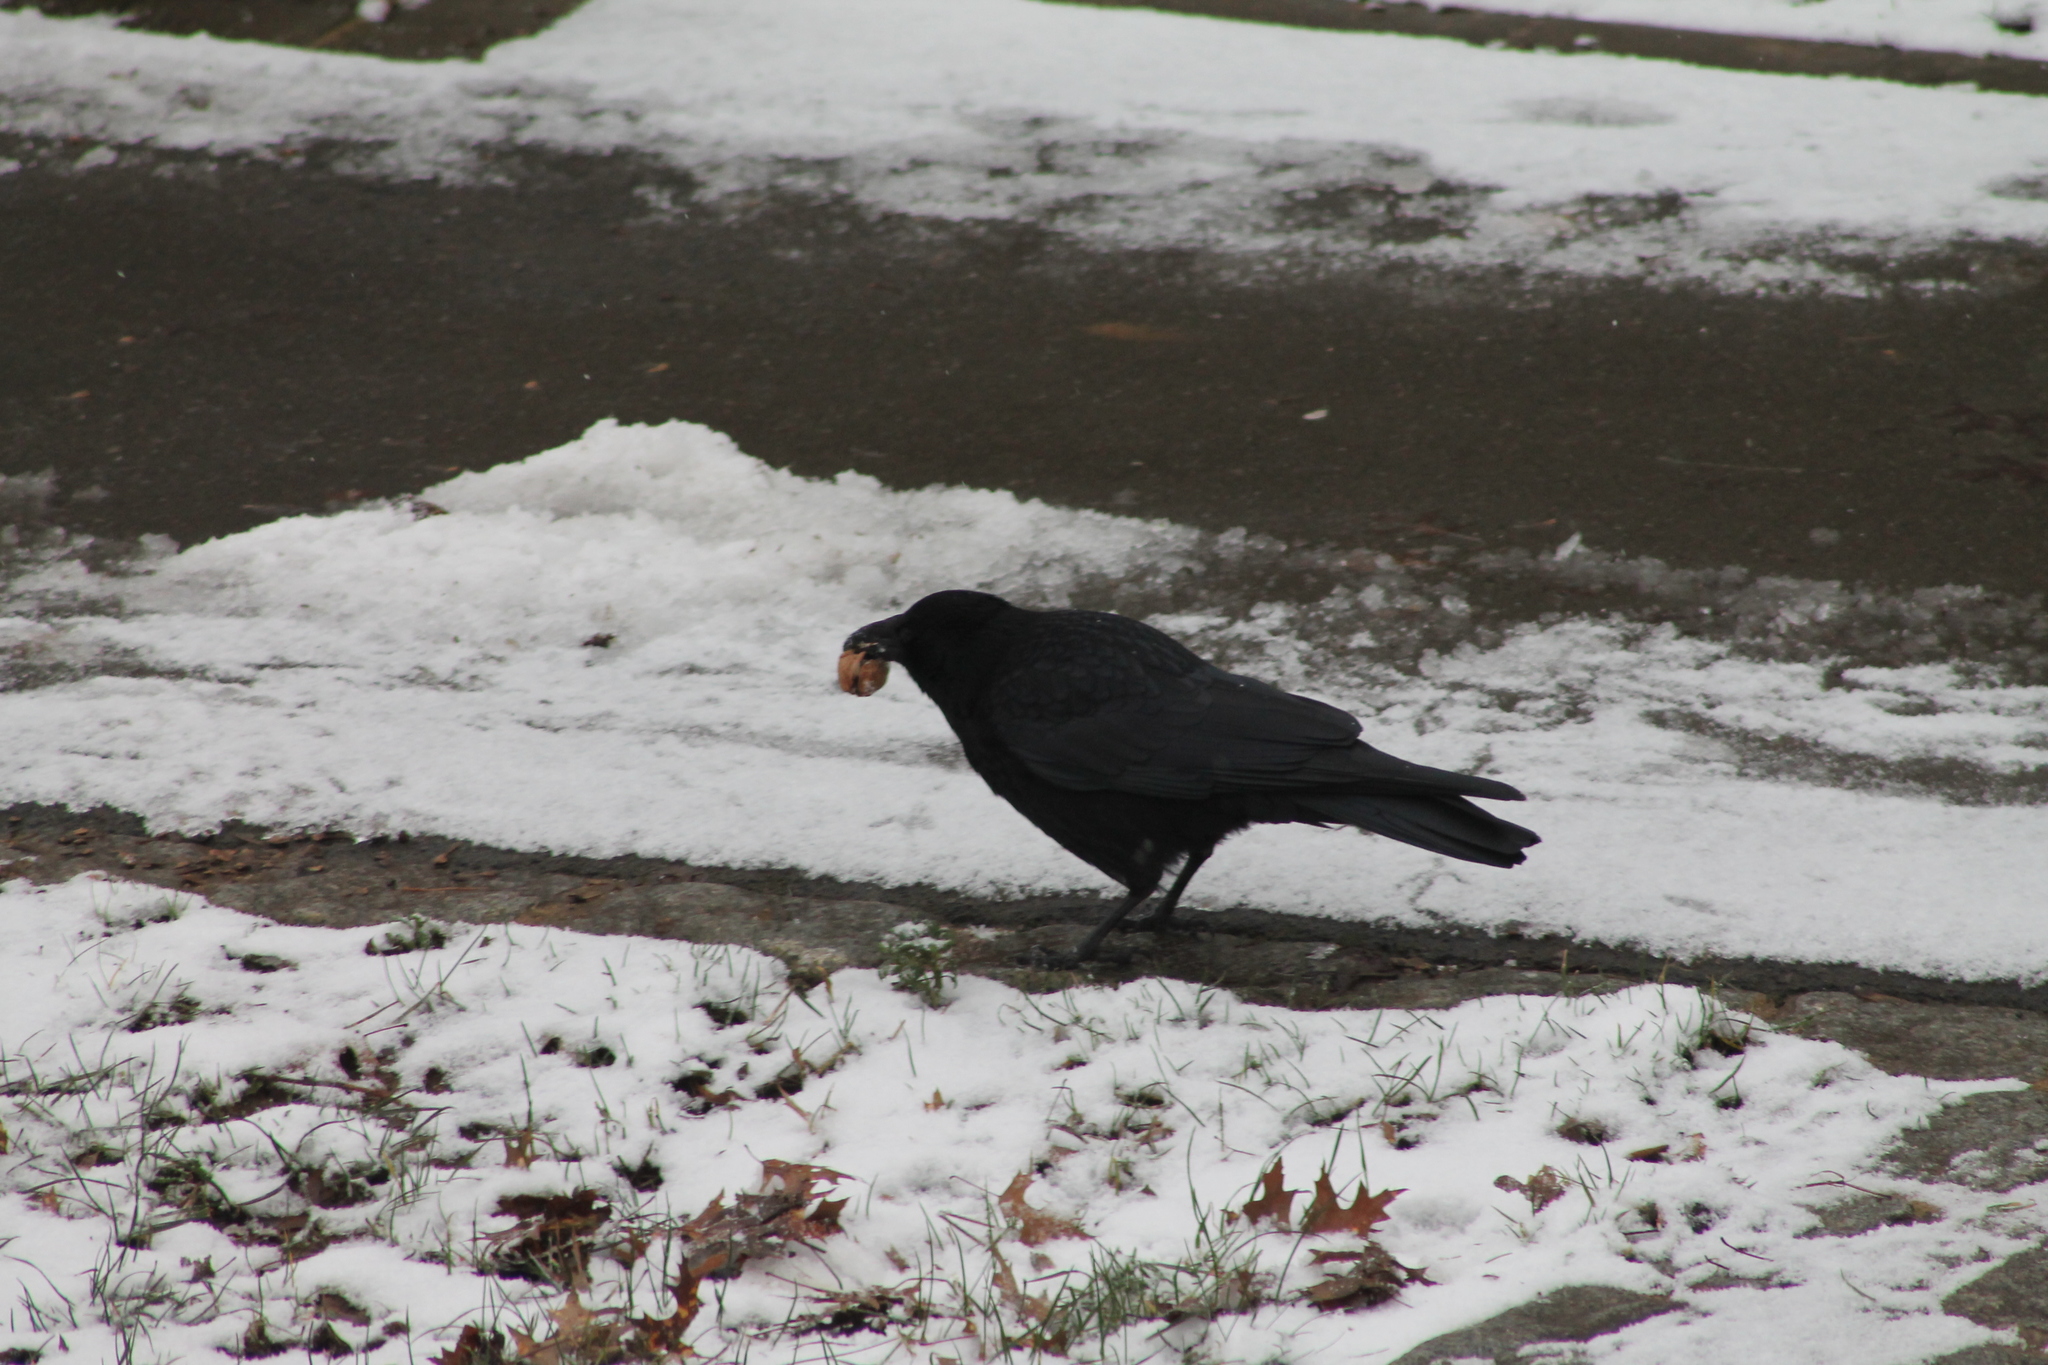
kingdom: Animalia
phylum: Chordata
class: Aves
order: Passeriformes
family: Corvidae
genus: Corvus
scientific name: Corvus corone
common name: Carrion crow
